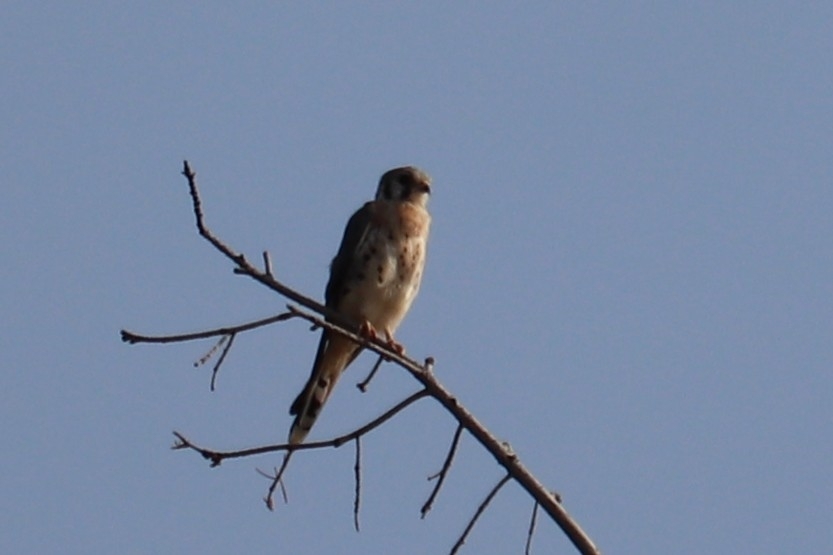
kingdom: Animalia
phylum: Chordata
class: Aves
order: Falconiformes
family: Falconidae
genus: Falco
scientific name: Falco sparverius
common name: American kestrel
